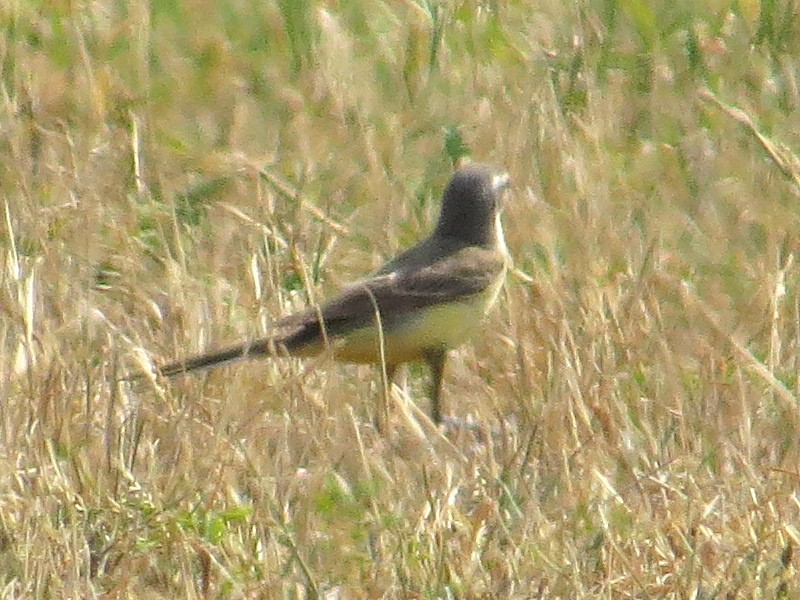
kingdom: Animalia
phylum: Chordata
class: Aves
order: Passeriformes
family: Motacillidae
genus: Motacilla
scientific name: Motacilla flava
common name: Western yellow wagtail
